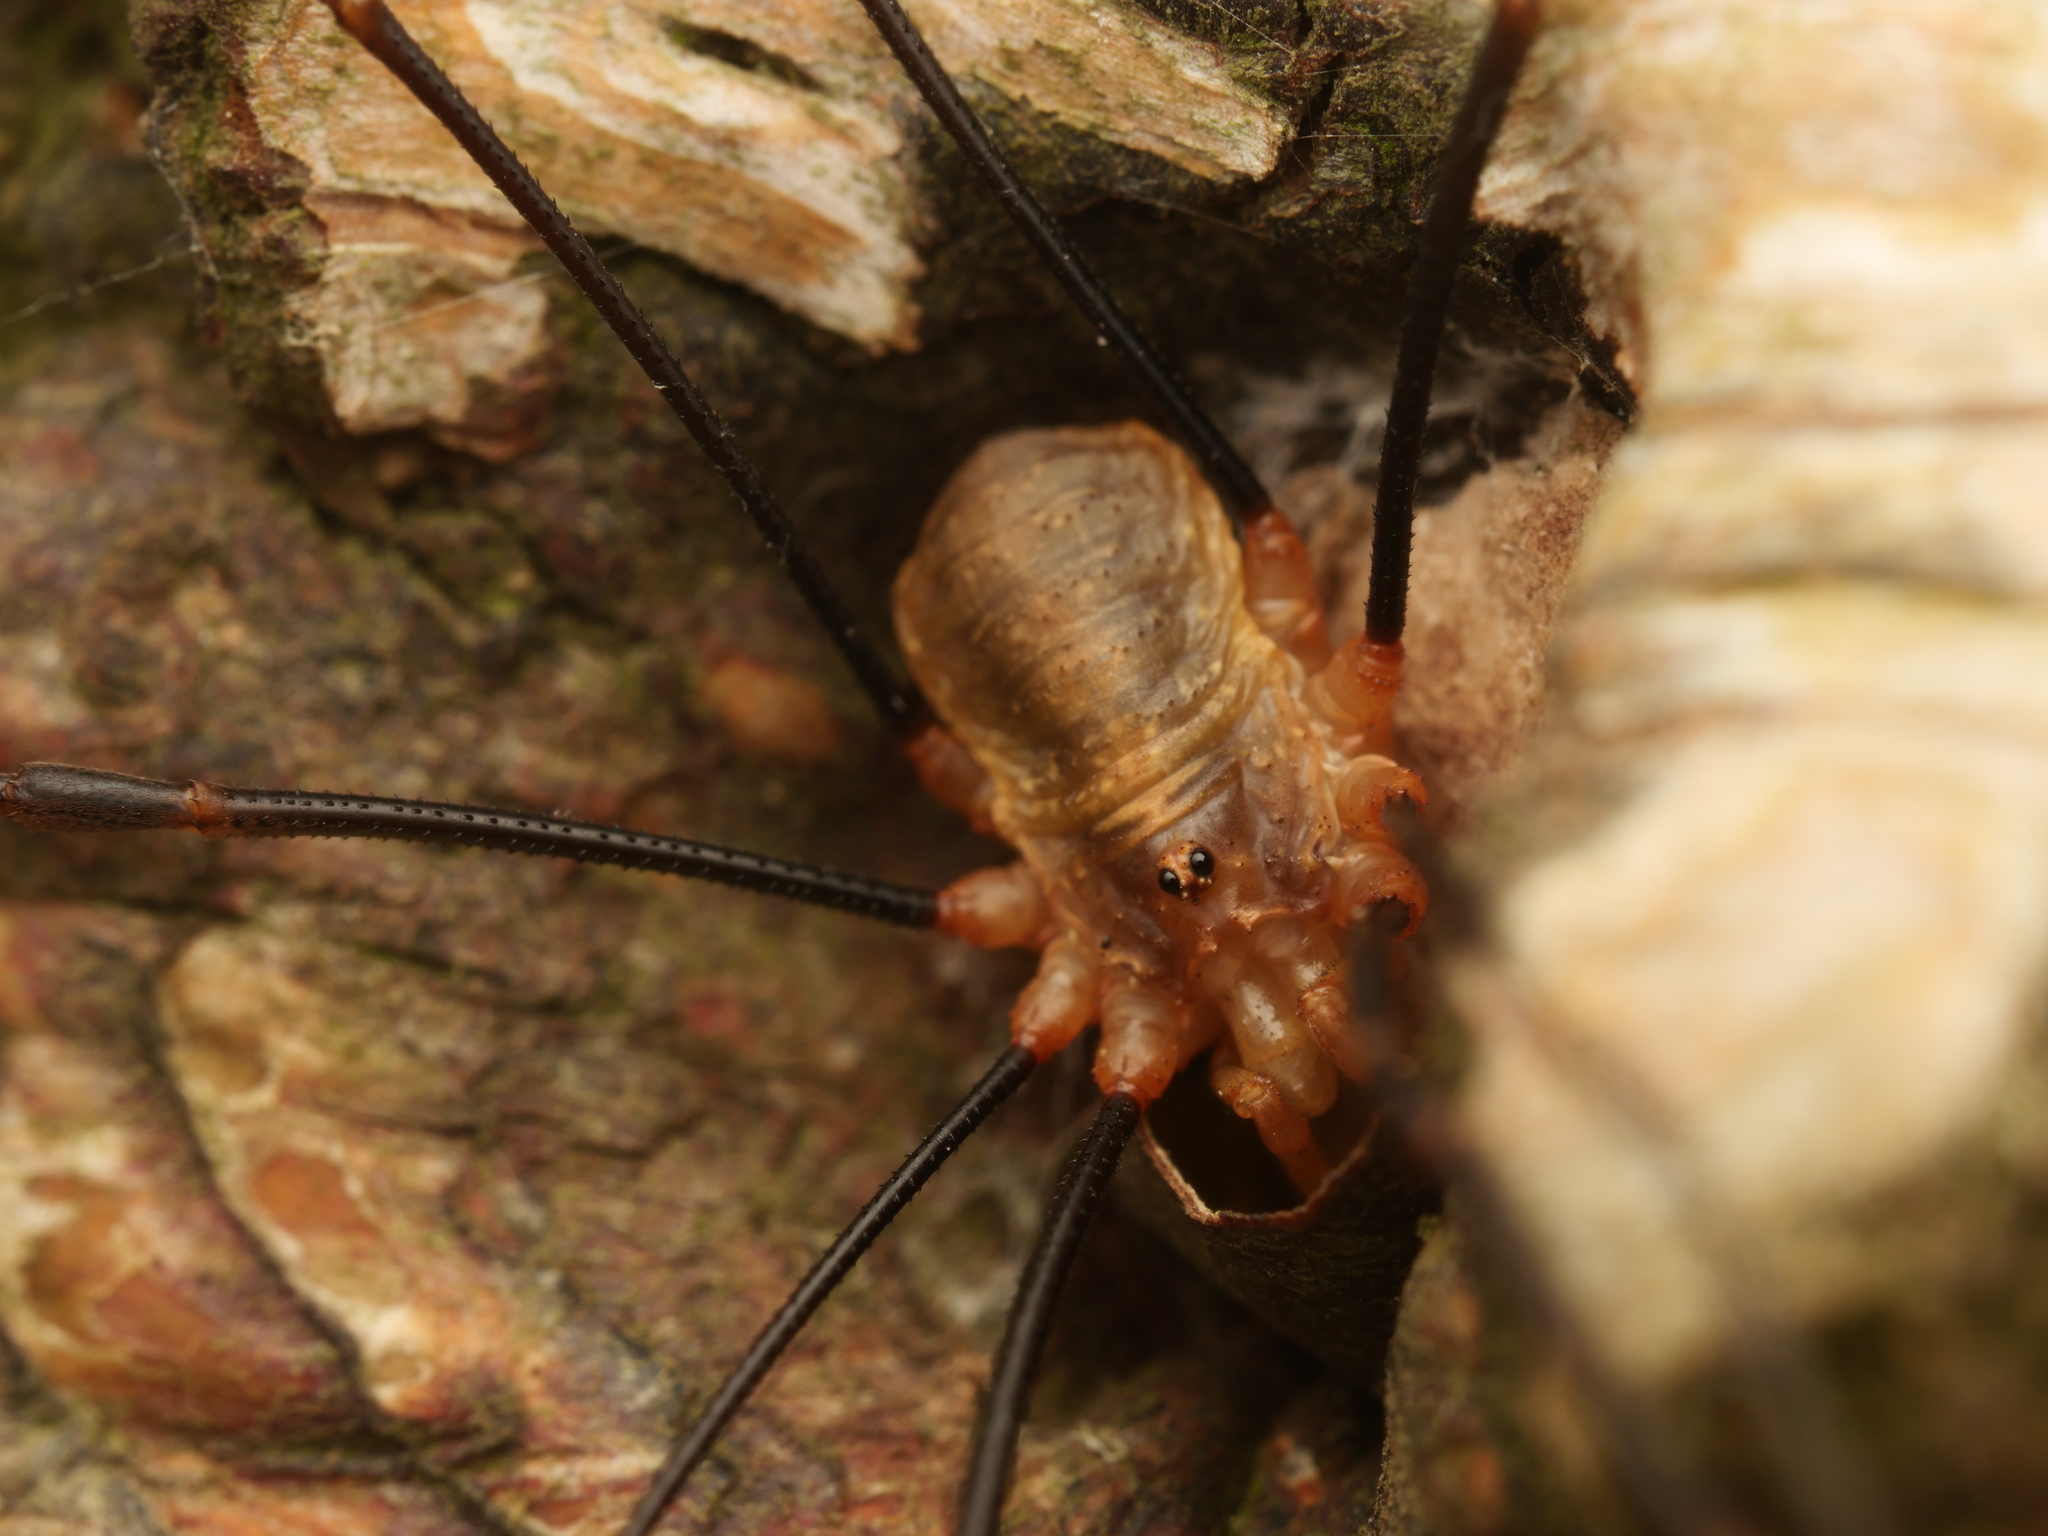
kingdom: Animalia
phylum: Arthropoda
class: Arachnida
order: Opiliones
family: Phalangiidae
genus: Opilio
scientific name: Opilio canestrinii
